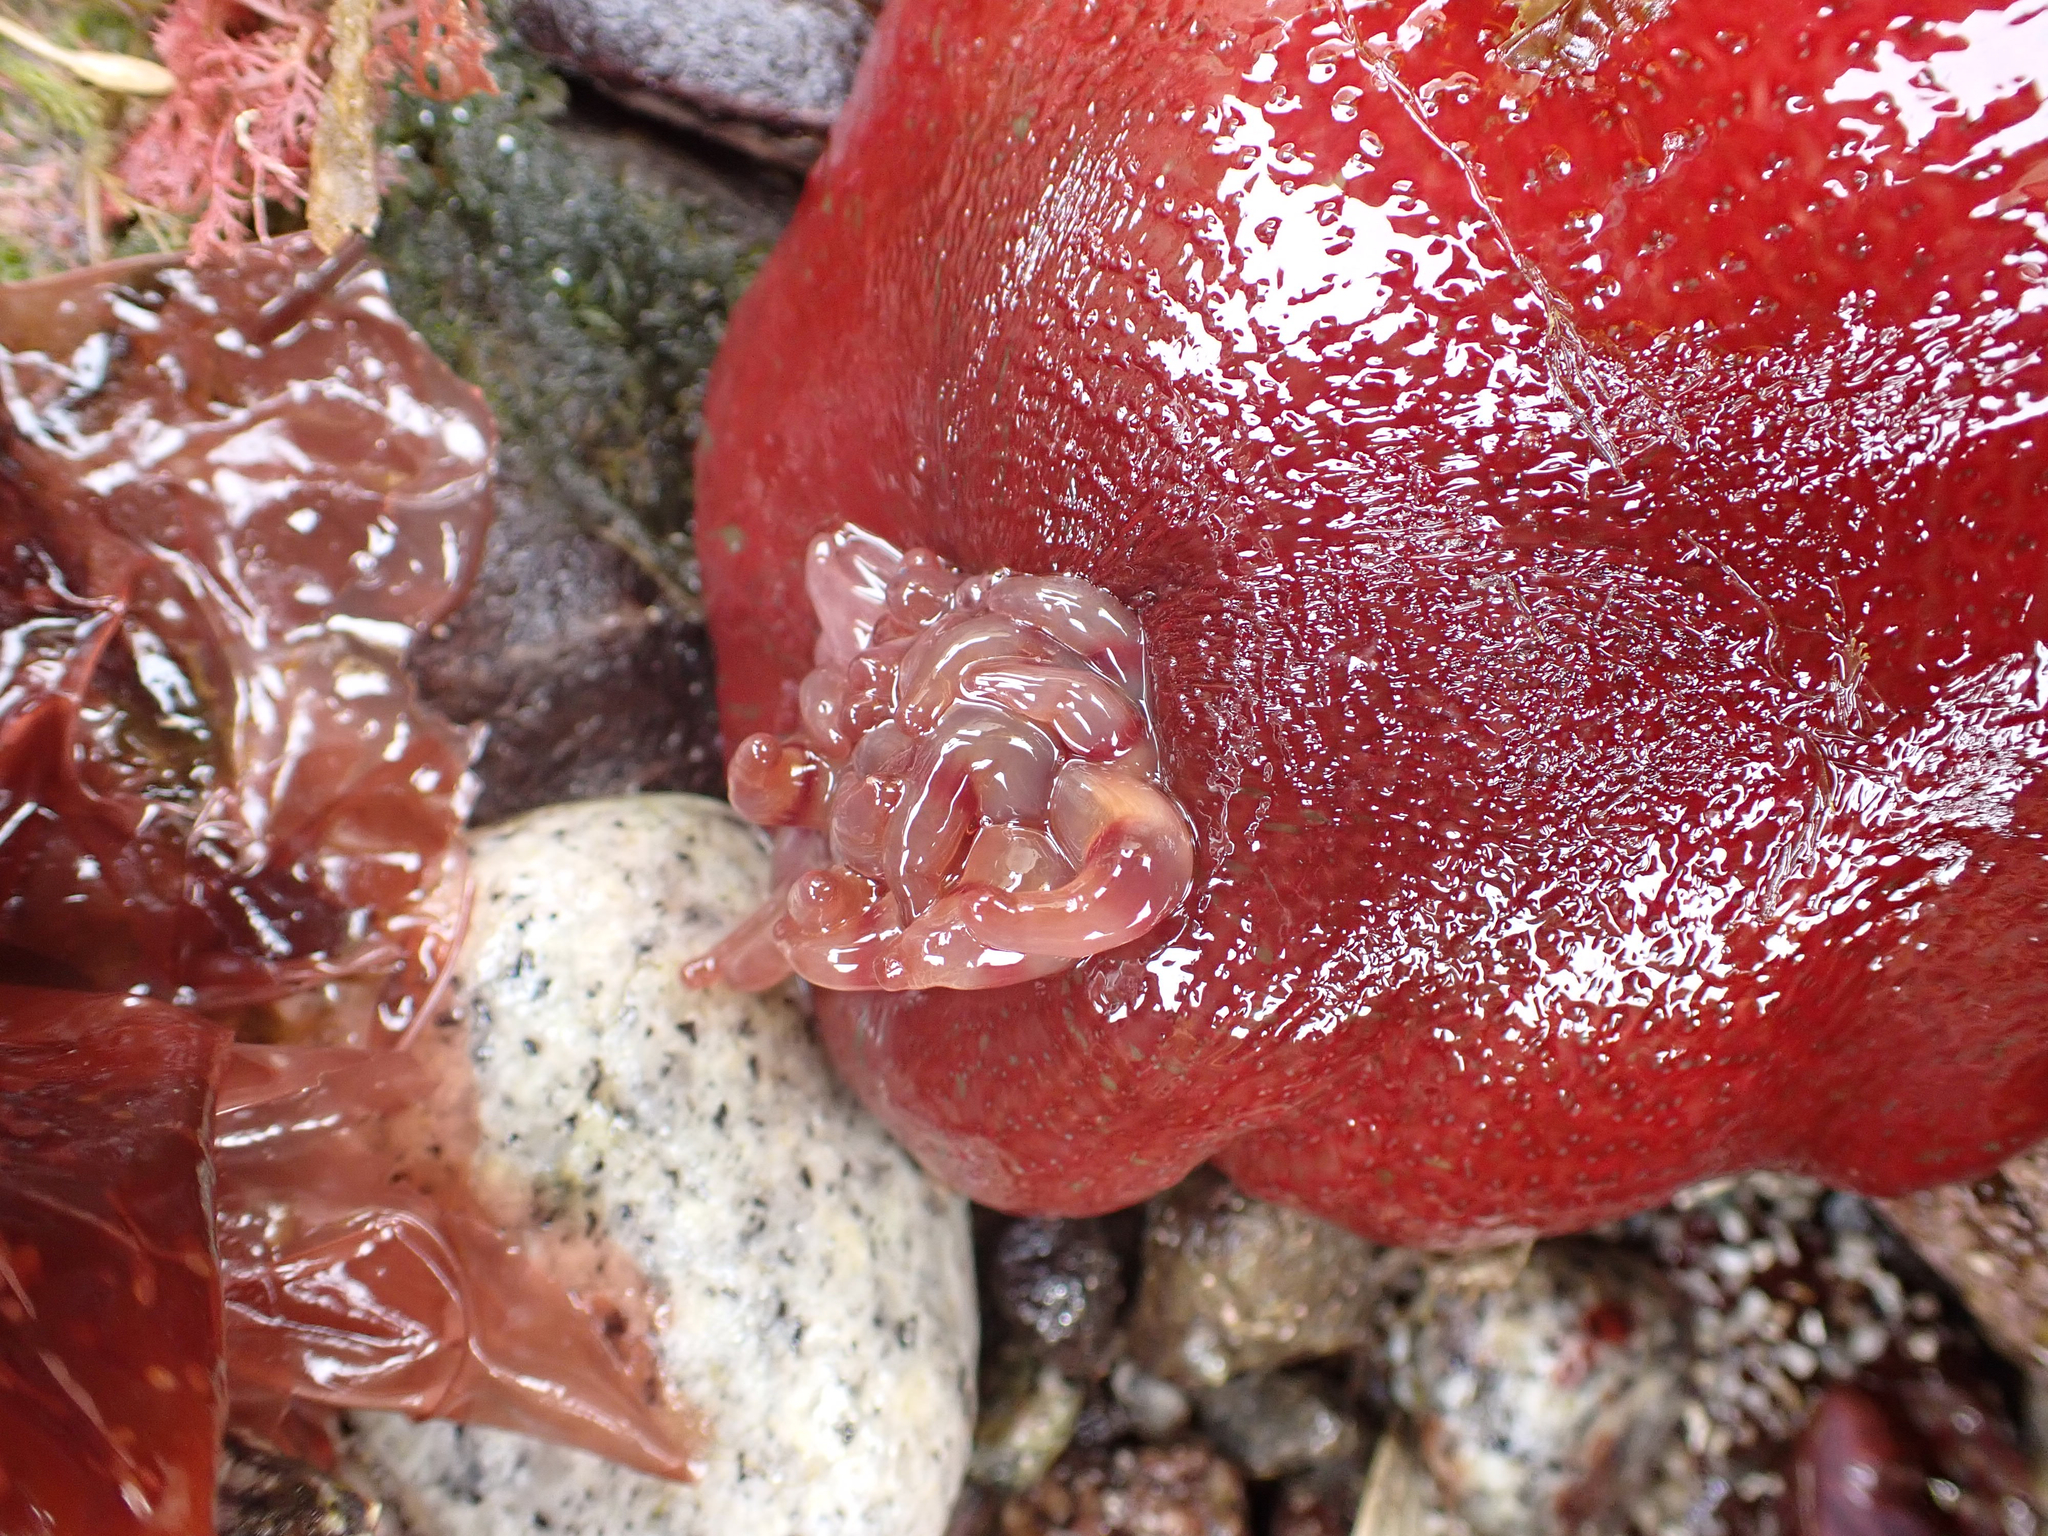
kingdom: Animalia
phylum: Cnidaria
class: Anthozoa
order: Actiniaria
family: Actiniidae
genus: Urticina
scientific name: Urticina grebelnyi
